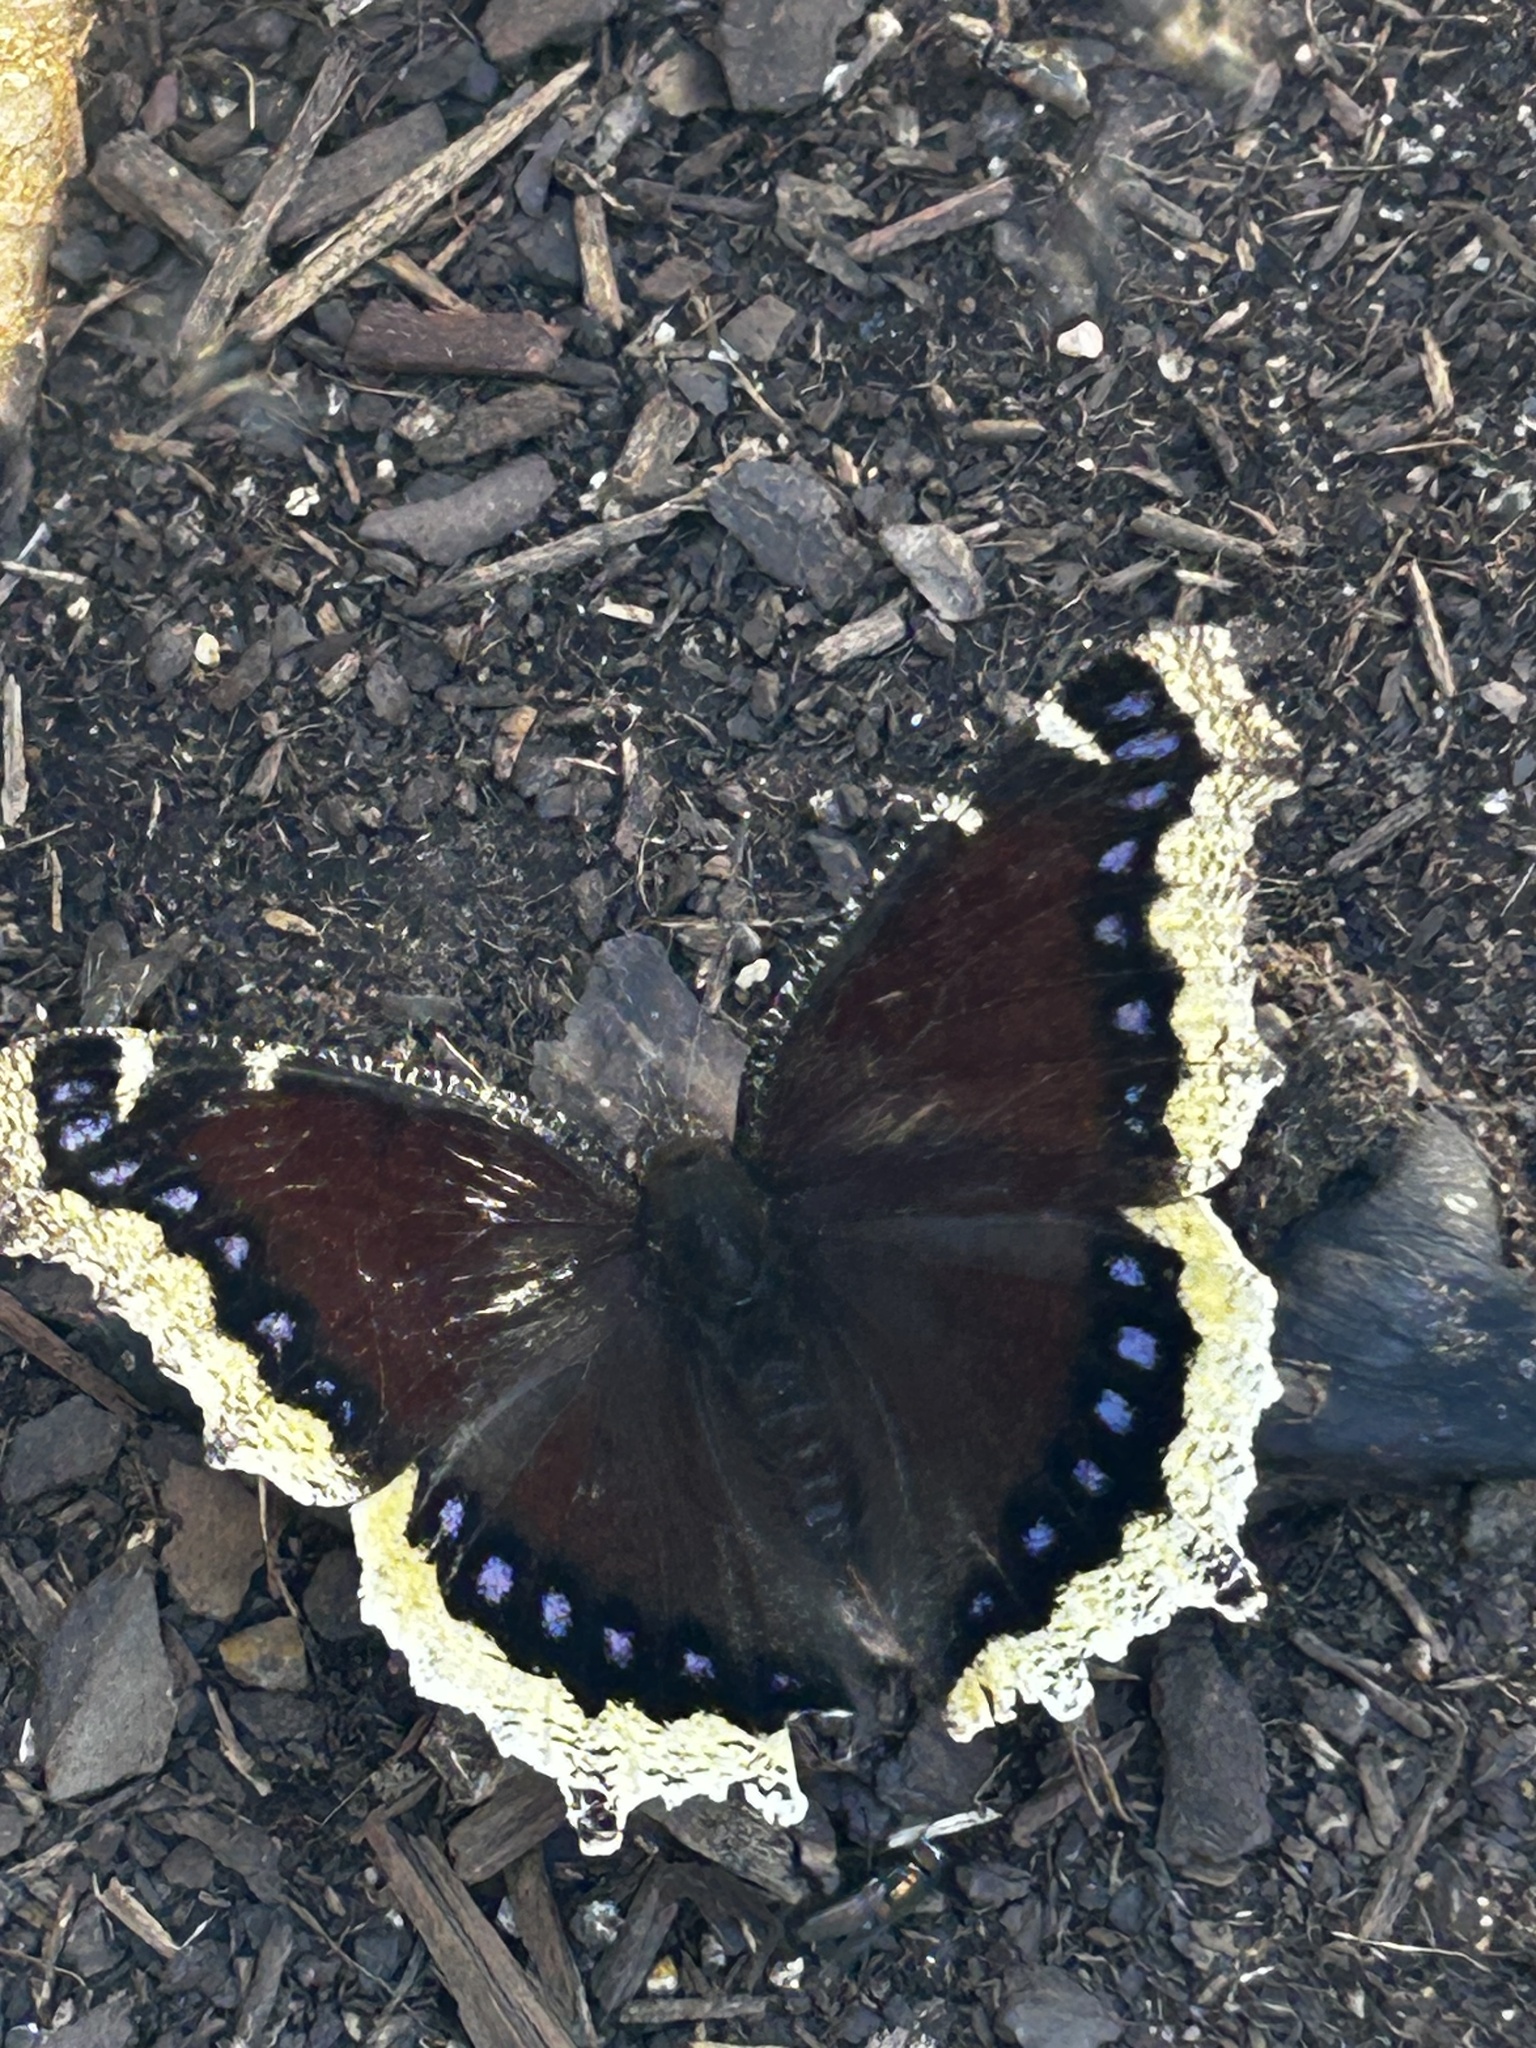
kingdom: Animalia
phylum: Arthropoda
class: Insecta
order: Lepidoptera
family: Nymphalidae
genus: Nymphalis
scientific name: Nymphalis antiopa
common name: Camberwell beauty
